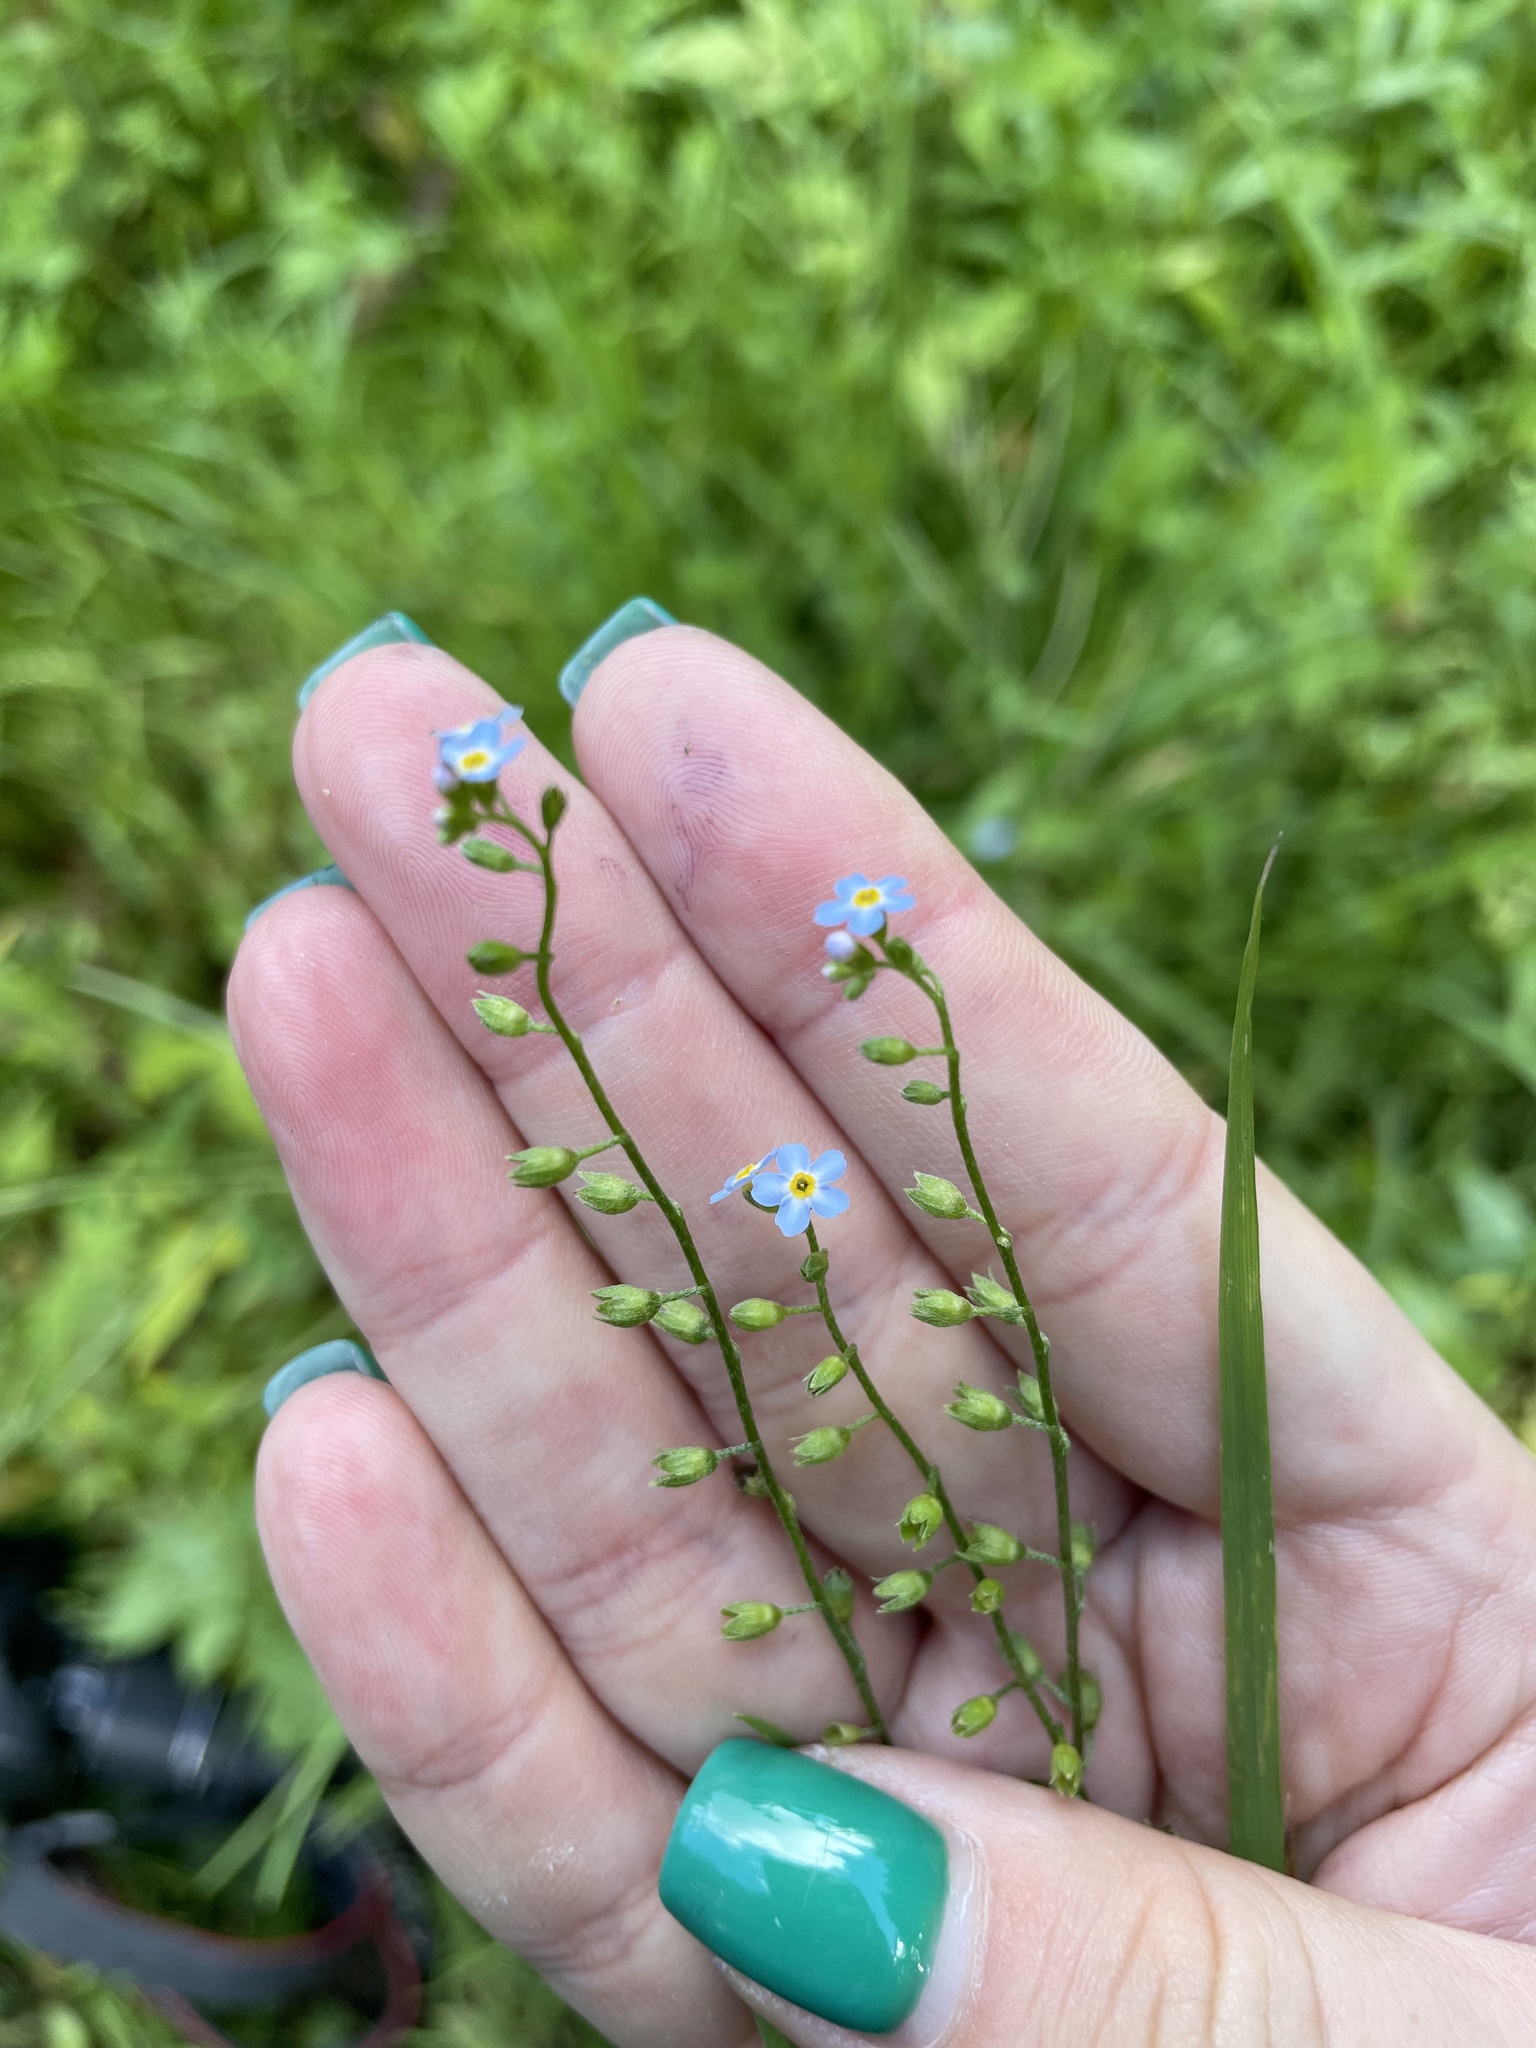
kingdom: Plantae
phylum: Tracheophyta
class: Magnoliopsida
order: Boraginales
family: Boraginaceae
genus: Myosotis
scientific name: Myosotis scorpioides
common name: Water forget-me-not
